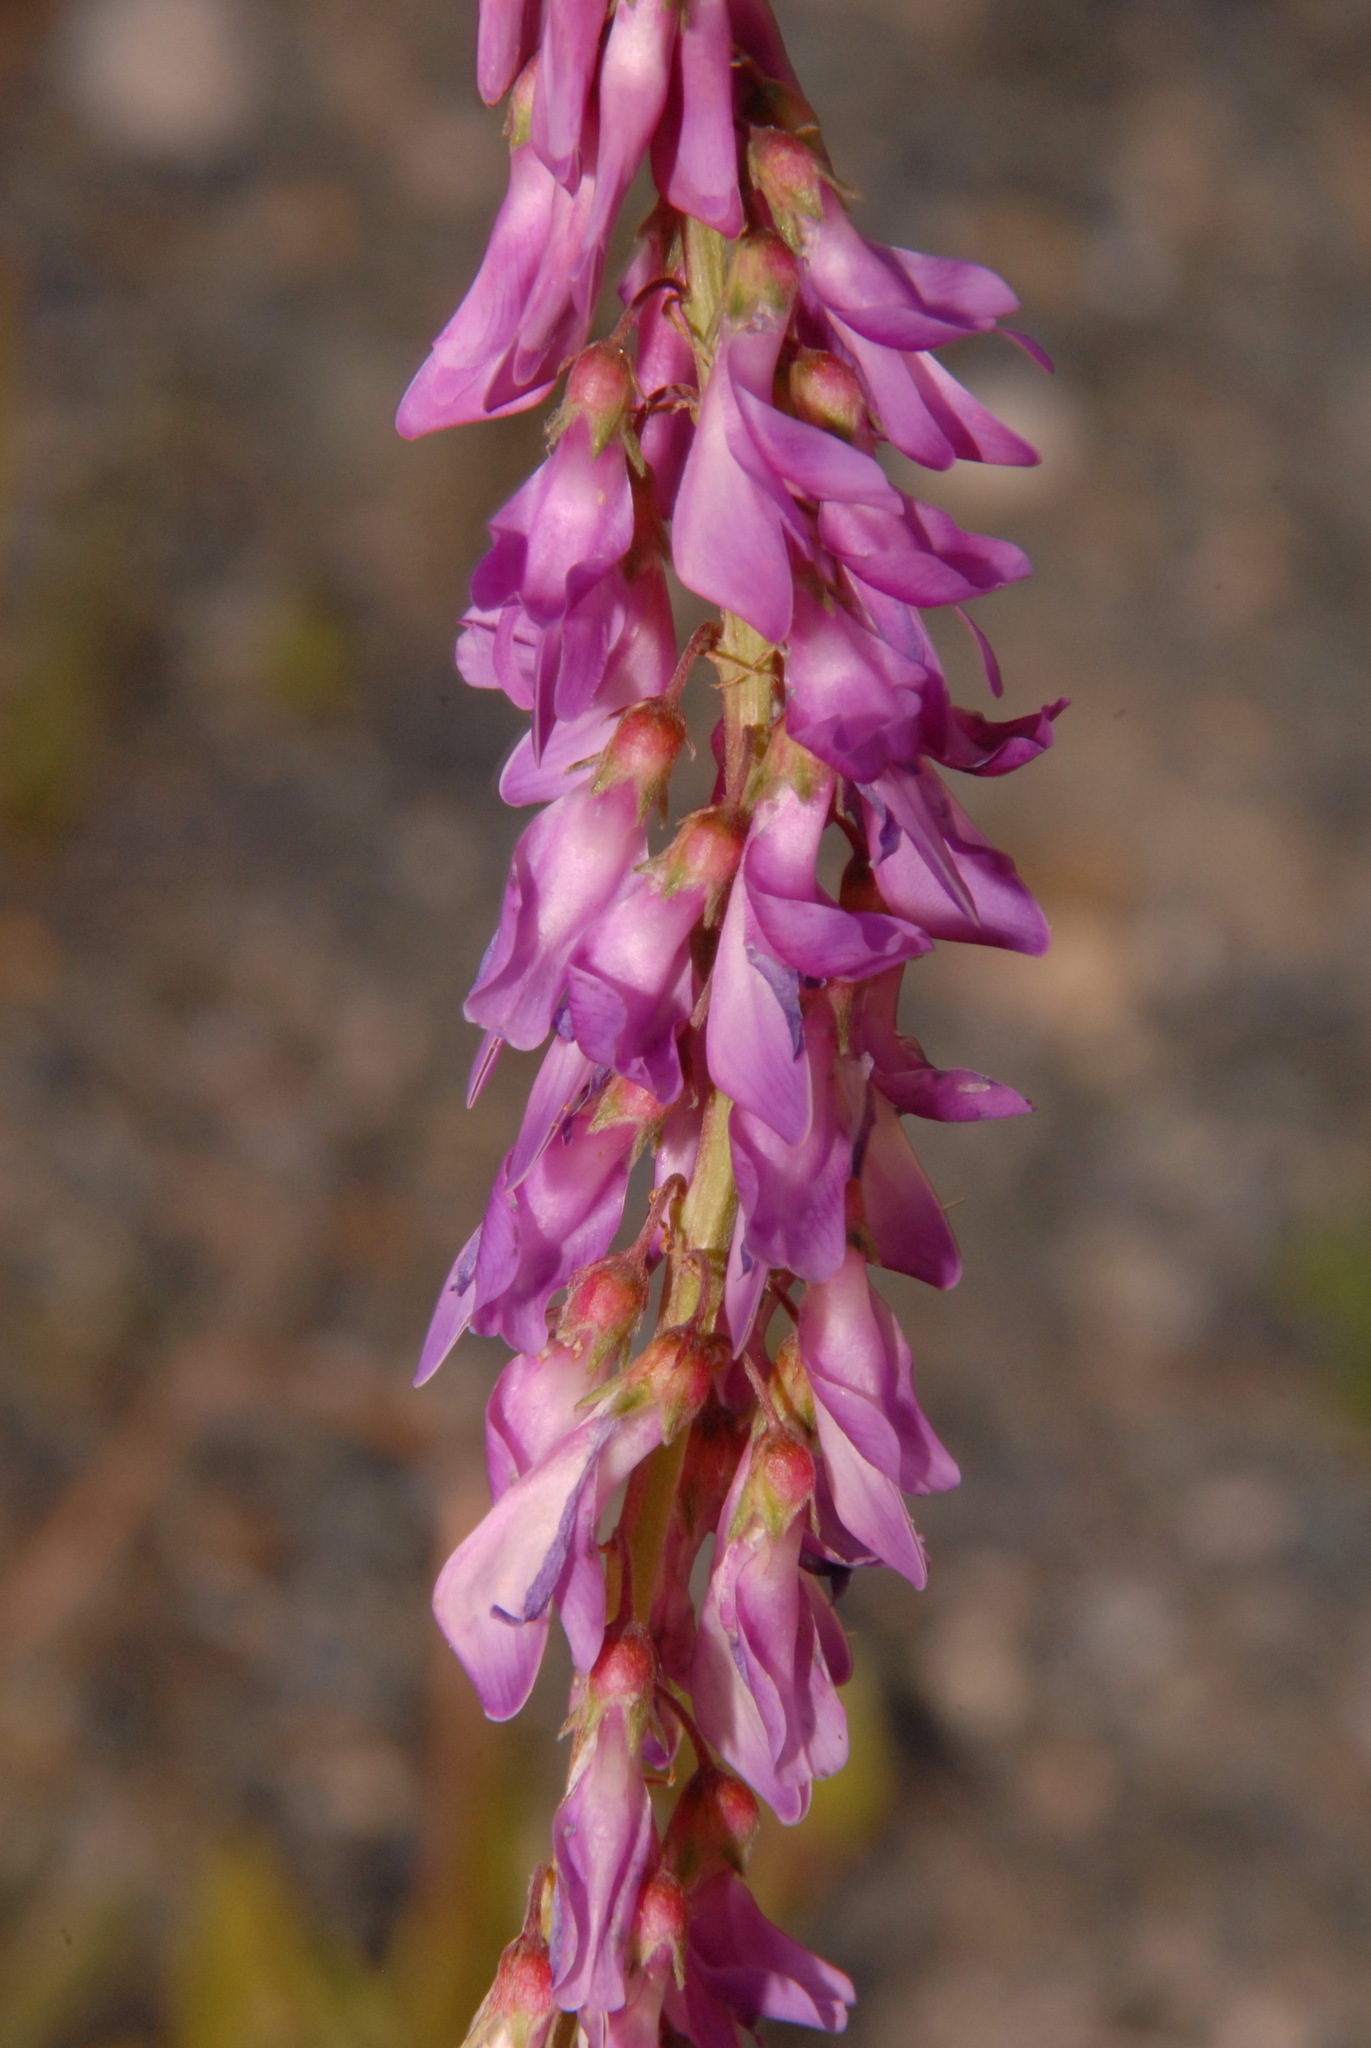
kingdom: Plantae
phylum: Tracheophyta
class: Magnoliopsida
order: Fabales
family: Fabaceae
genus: Hedysarum
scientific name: Hedysarum
